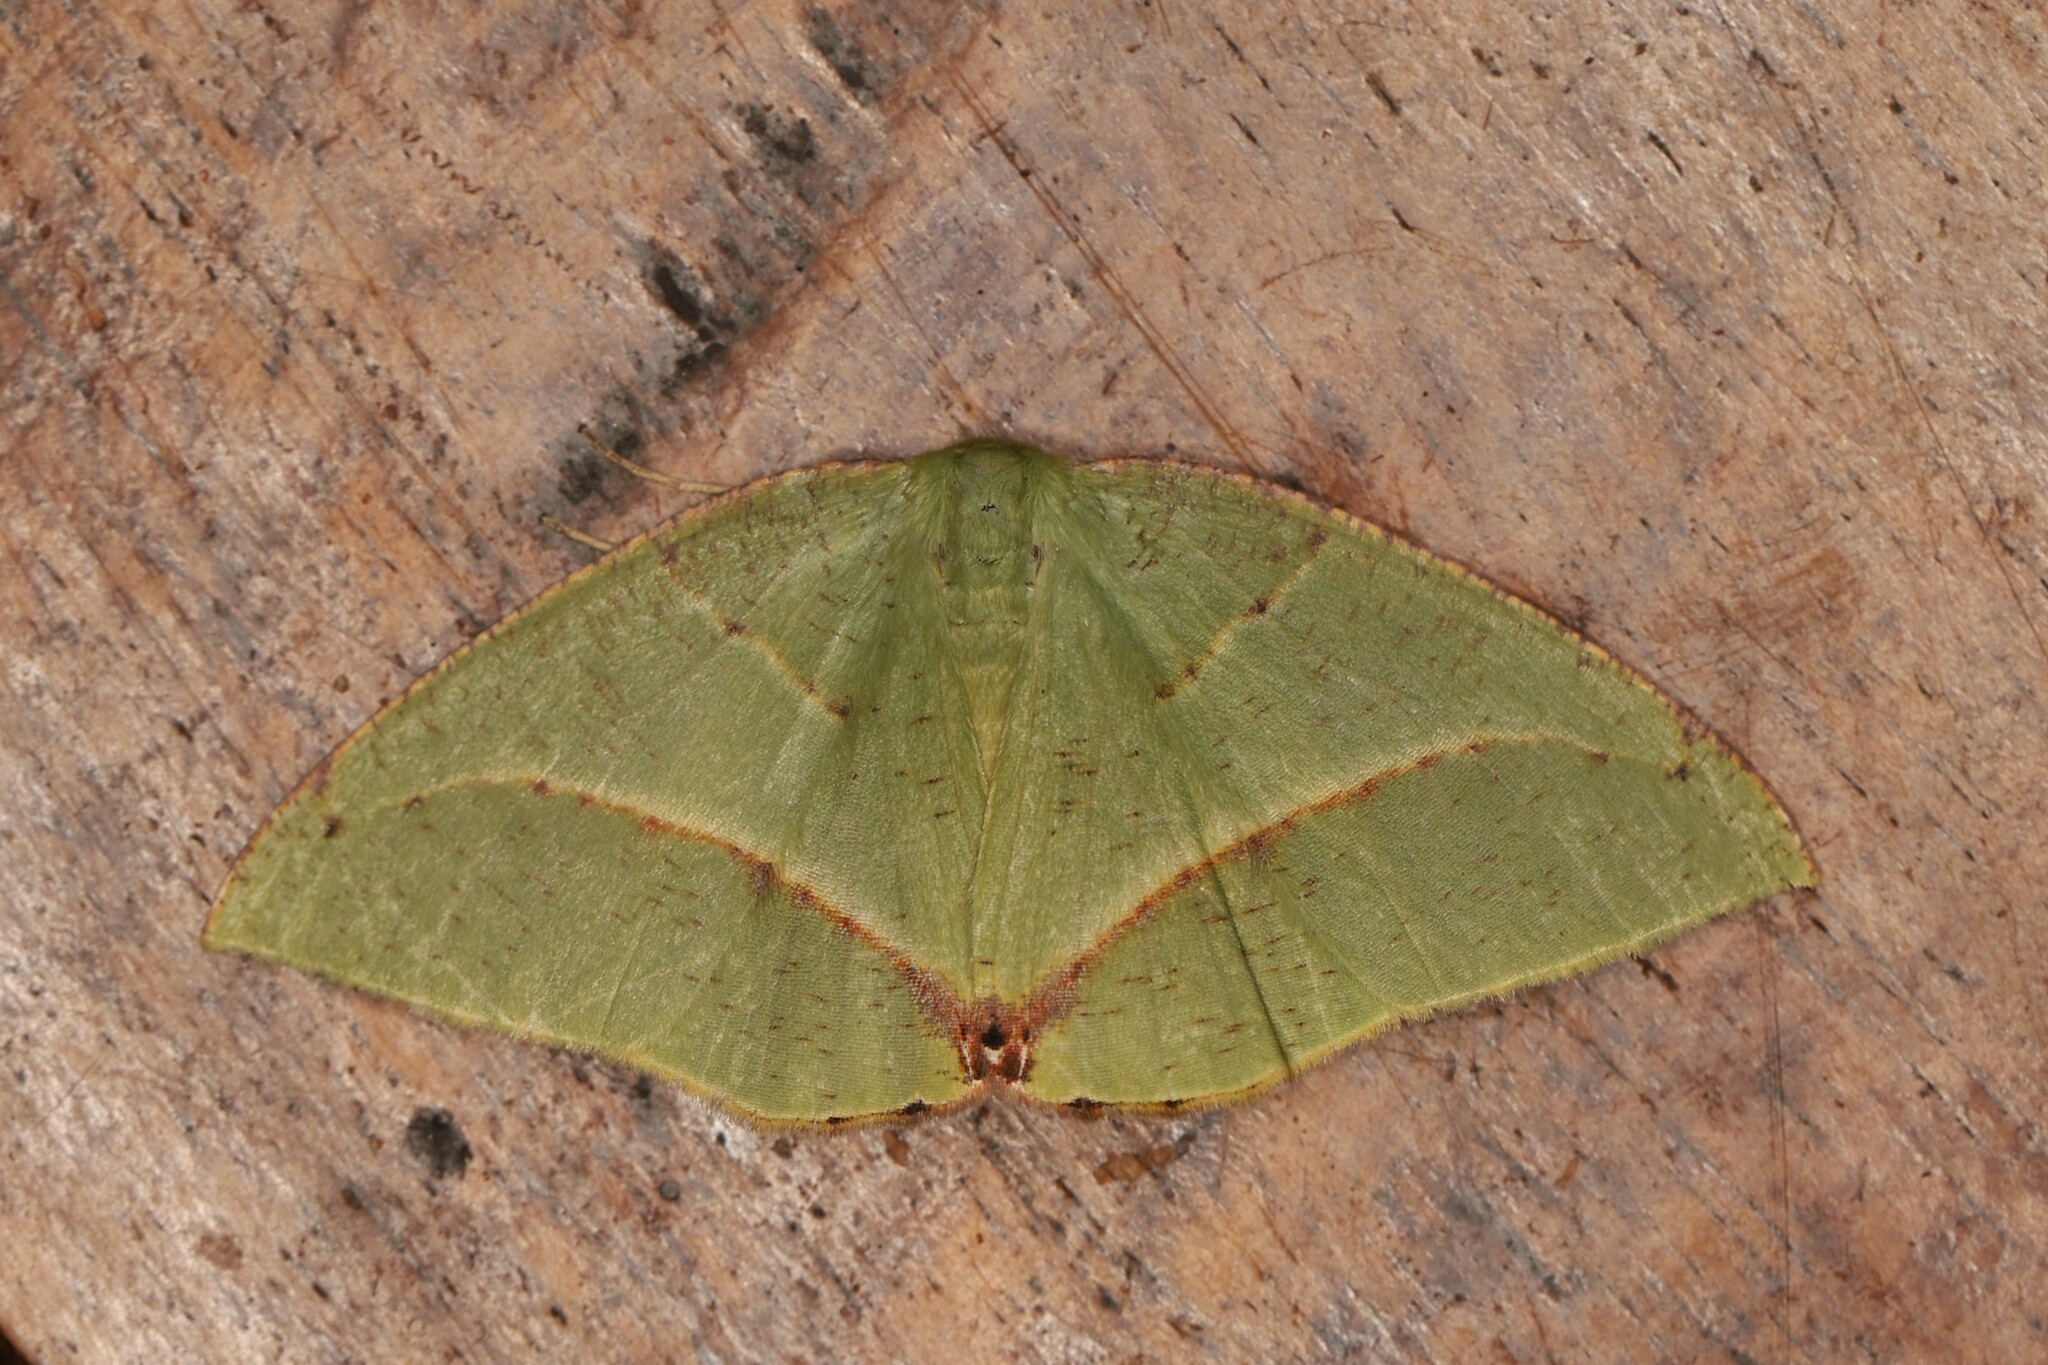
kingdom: Animalia
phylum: Arthropoda
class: Insecta
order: Lepidoptera
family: Geometridae
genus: Phyle
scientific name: Phyle antioquia
